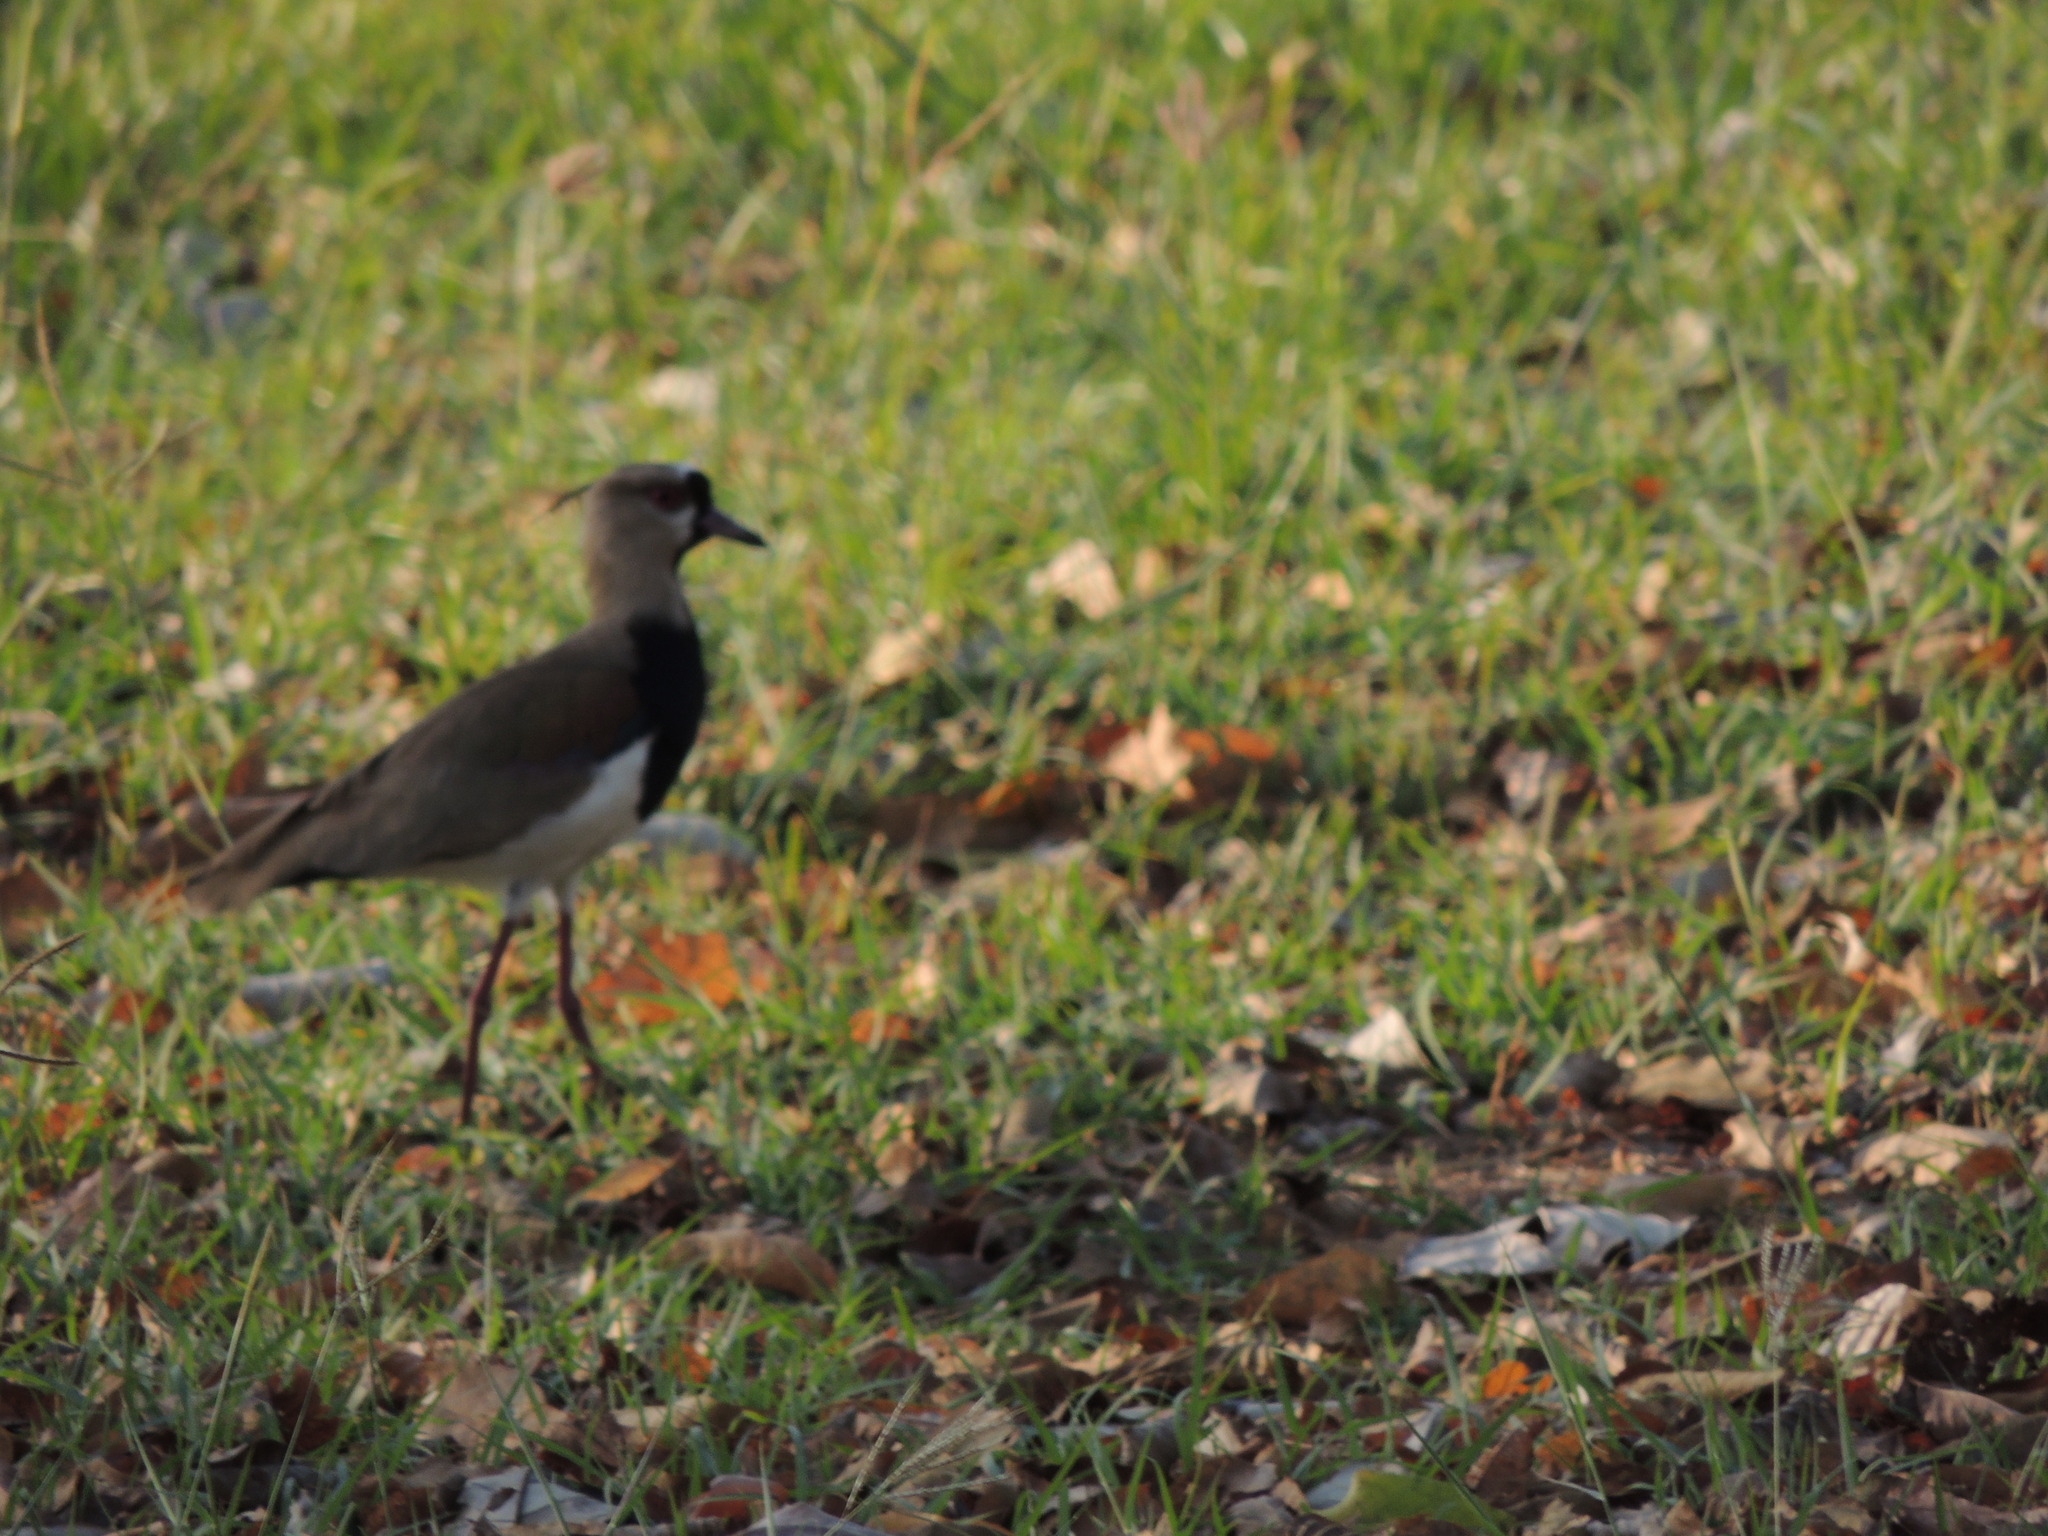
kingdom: Animalia
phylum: Chordata
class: Aves
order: Charadriiformes
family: Charadriidae
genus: Vanellus
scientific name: Vanellus chilensis
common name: Southern lapwing
